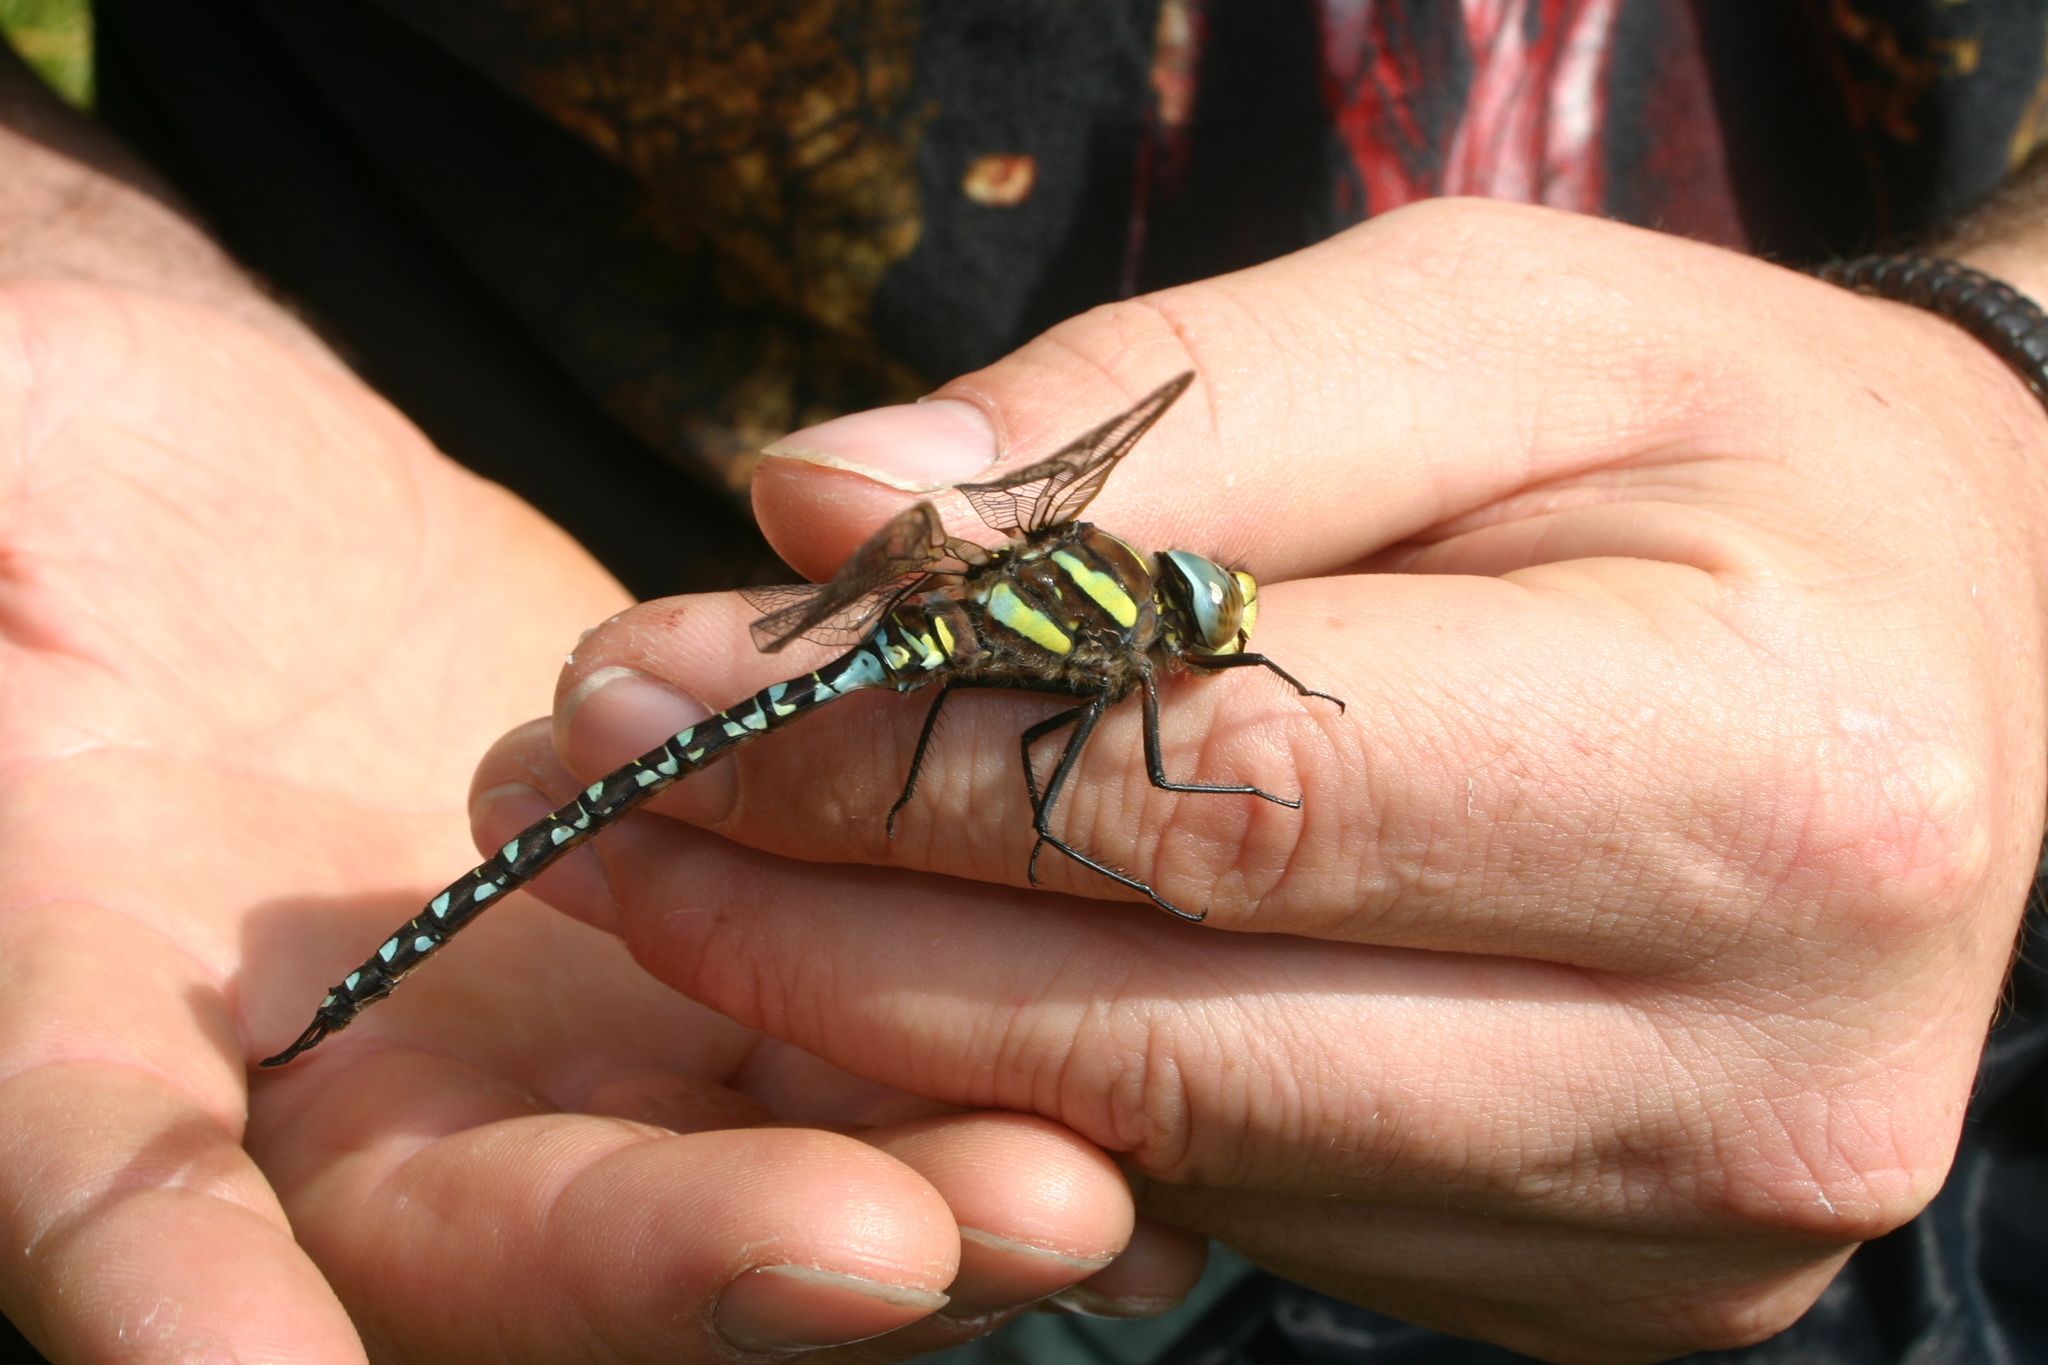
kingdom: Animalia
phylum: Arthropoda
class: Insecta
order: Odonata
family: Aeshnidae
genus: Aeshna
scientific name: Aeshna juncea
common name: Moorland hawker
